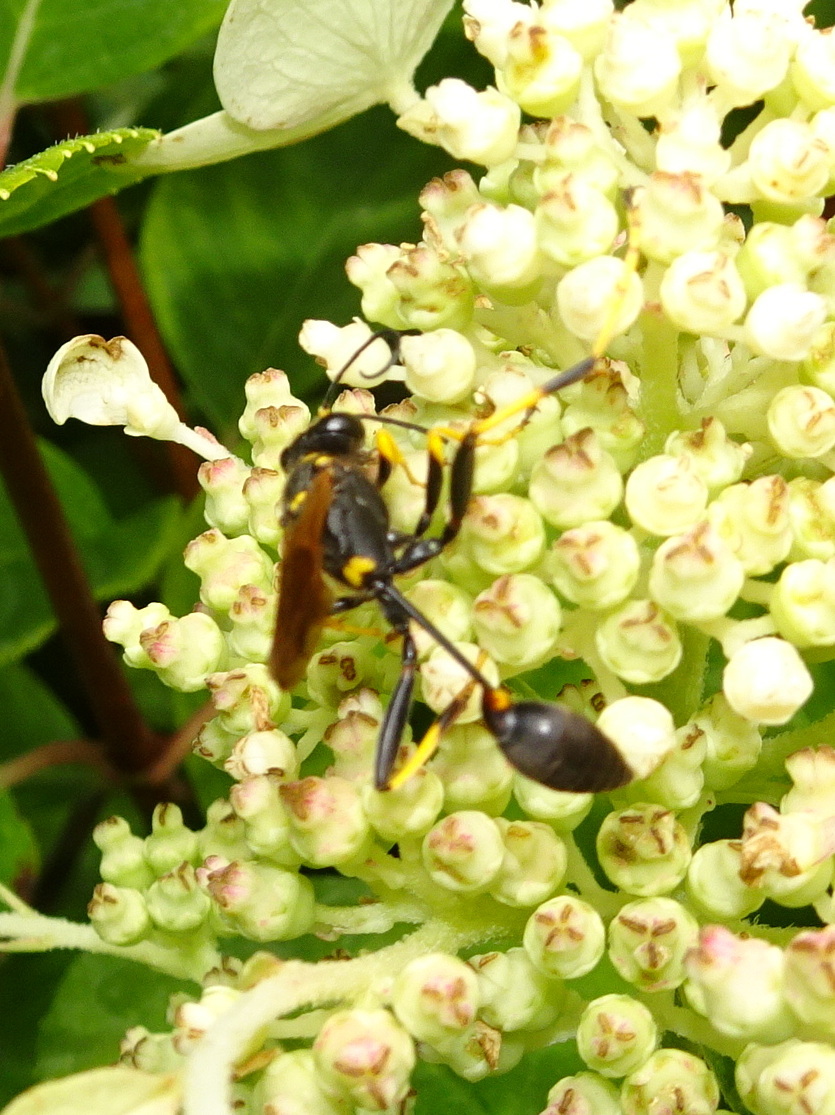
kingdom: Animalia
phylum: Arthropoda
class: Insecta
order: Hymenoptera
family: Sphecidae
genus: Sceliphron
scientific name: Sceliphron caementarium
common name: Mud dauber
